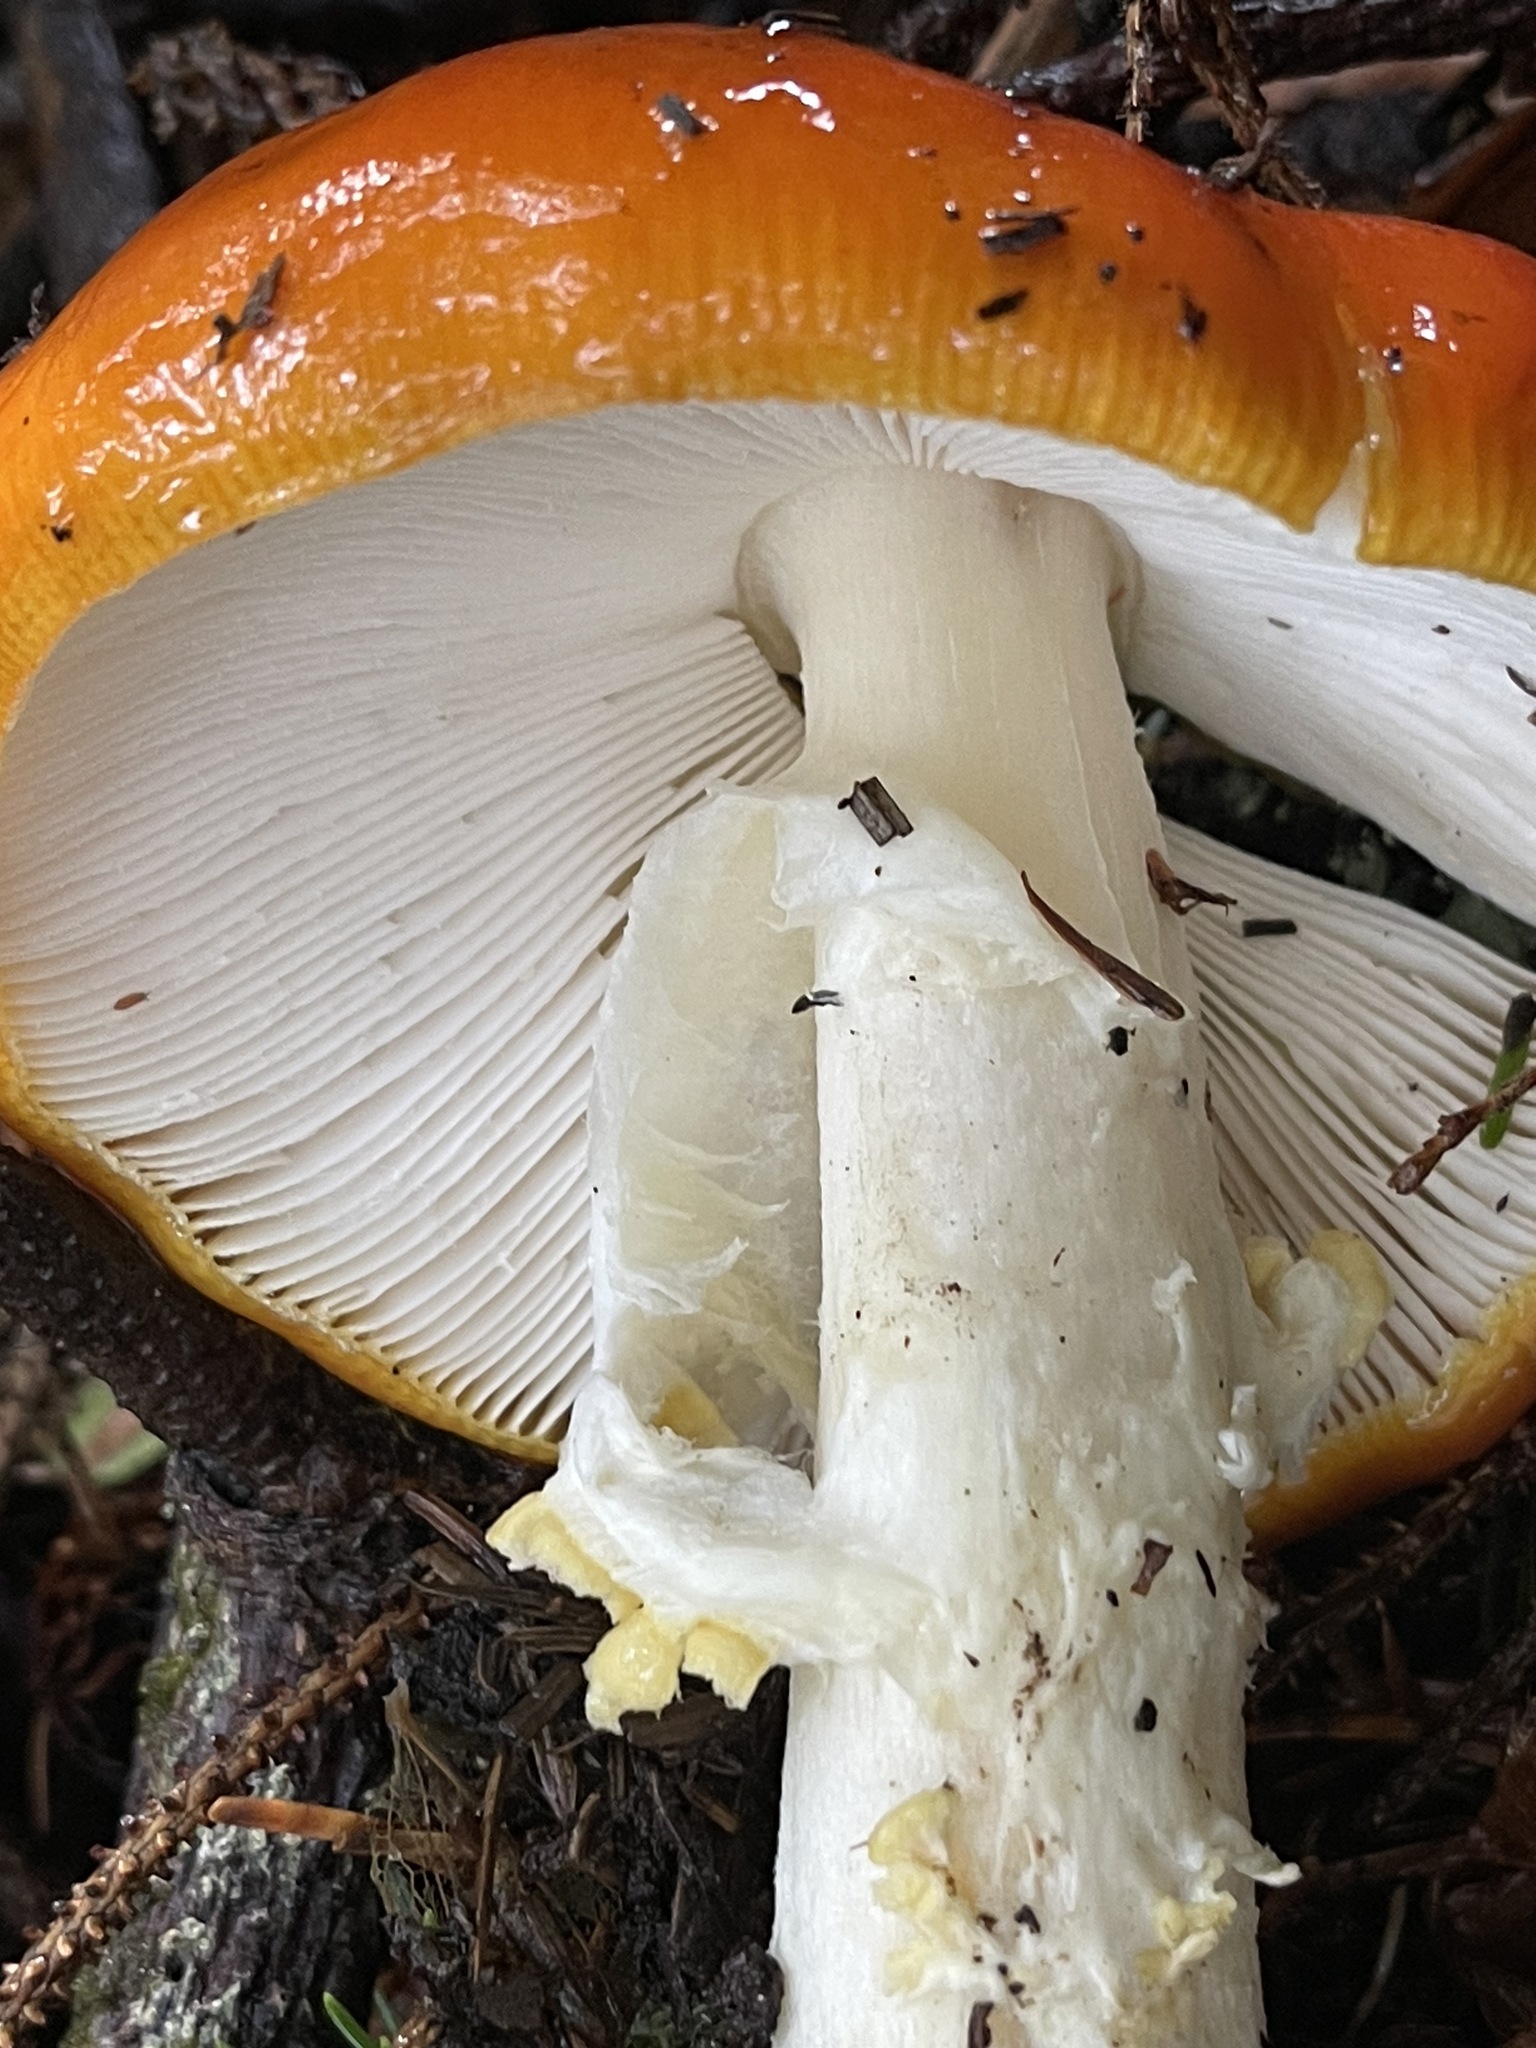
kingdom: Fungi
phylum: Basidiomycota
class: Agaricomycetes
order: Agaricales
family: Amanitaceae
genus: Amanita
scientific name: Amanita muscaria
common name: Fly agaric
